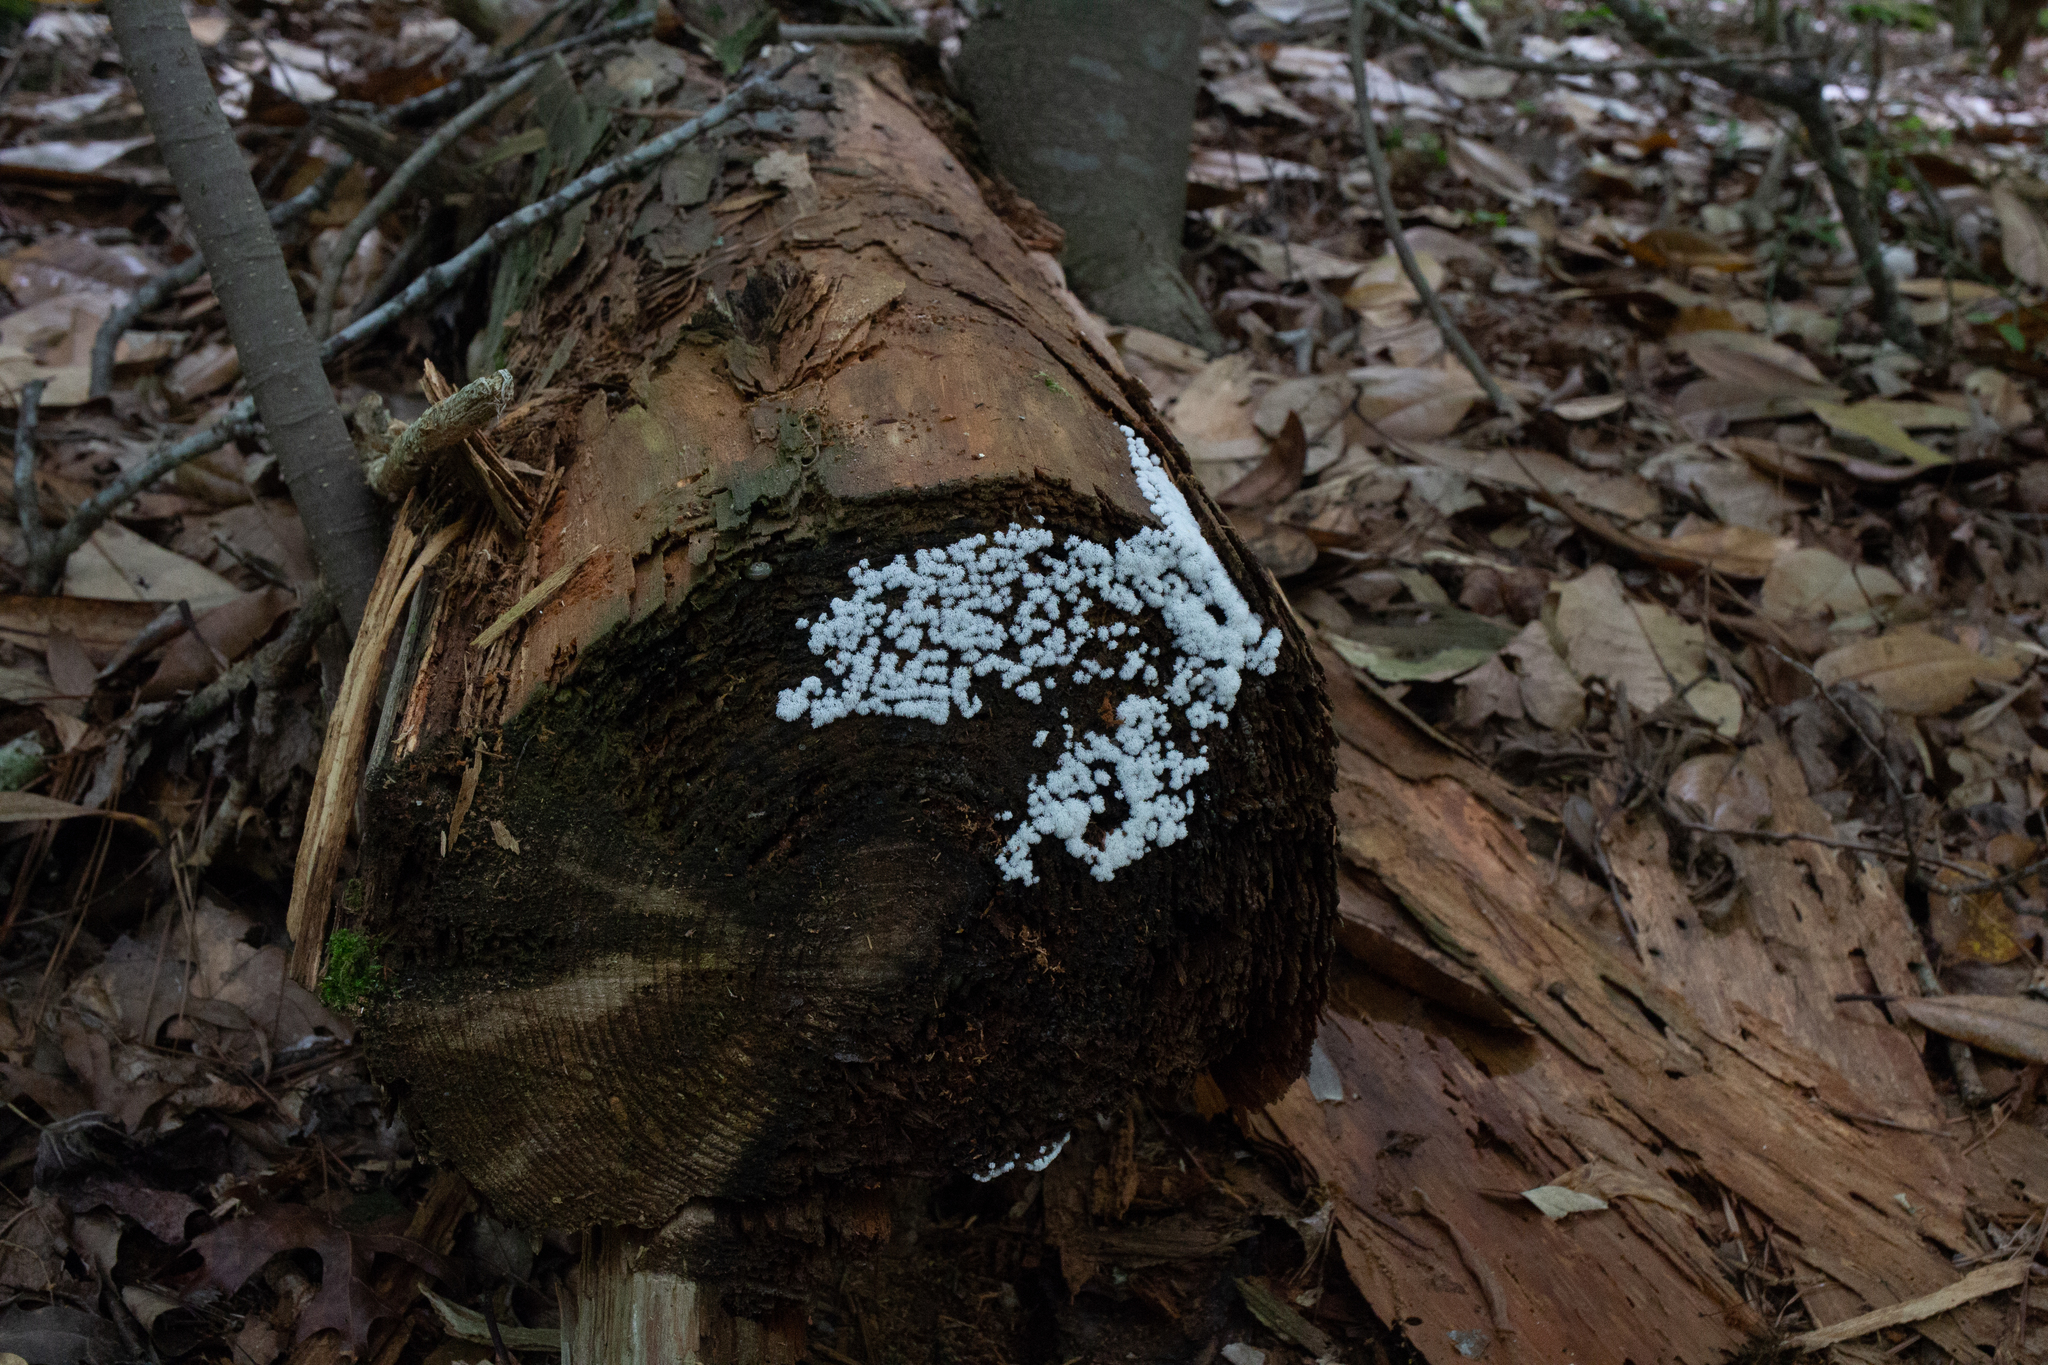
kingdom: Protozoa
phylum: Mycetozoa
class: Protosteliomycetes
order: Ceratiomyxales
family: Ceratiomyxaceae
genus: Ceratiomyxa
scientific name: Ceratiomyxa fruticulosa
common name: Honeycomb coral slime mold
